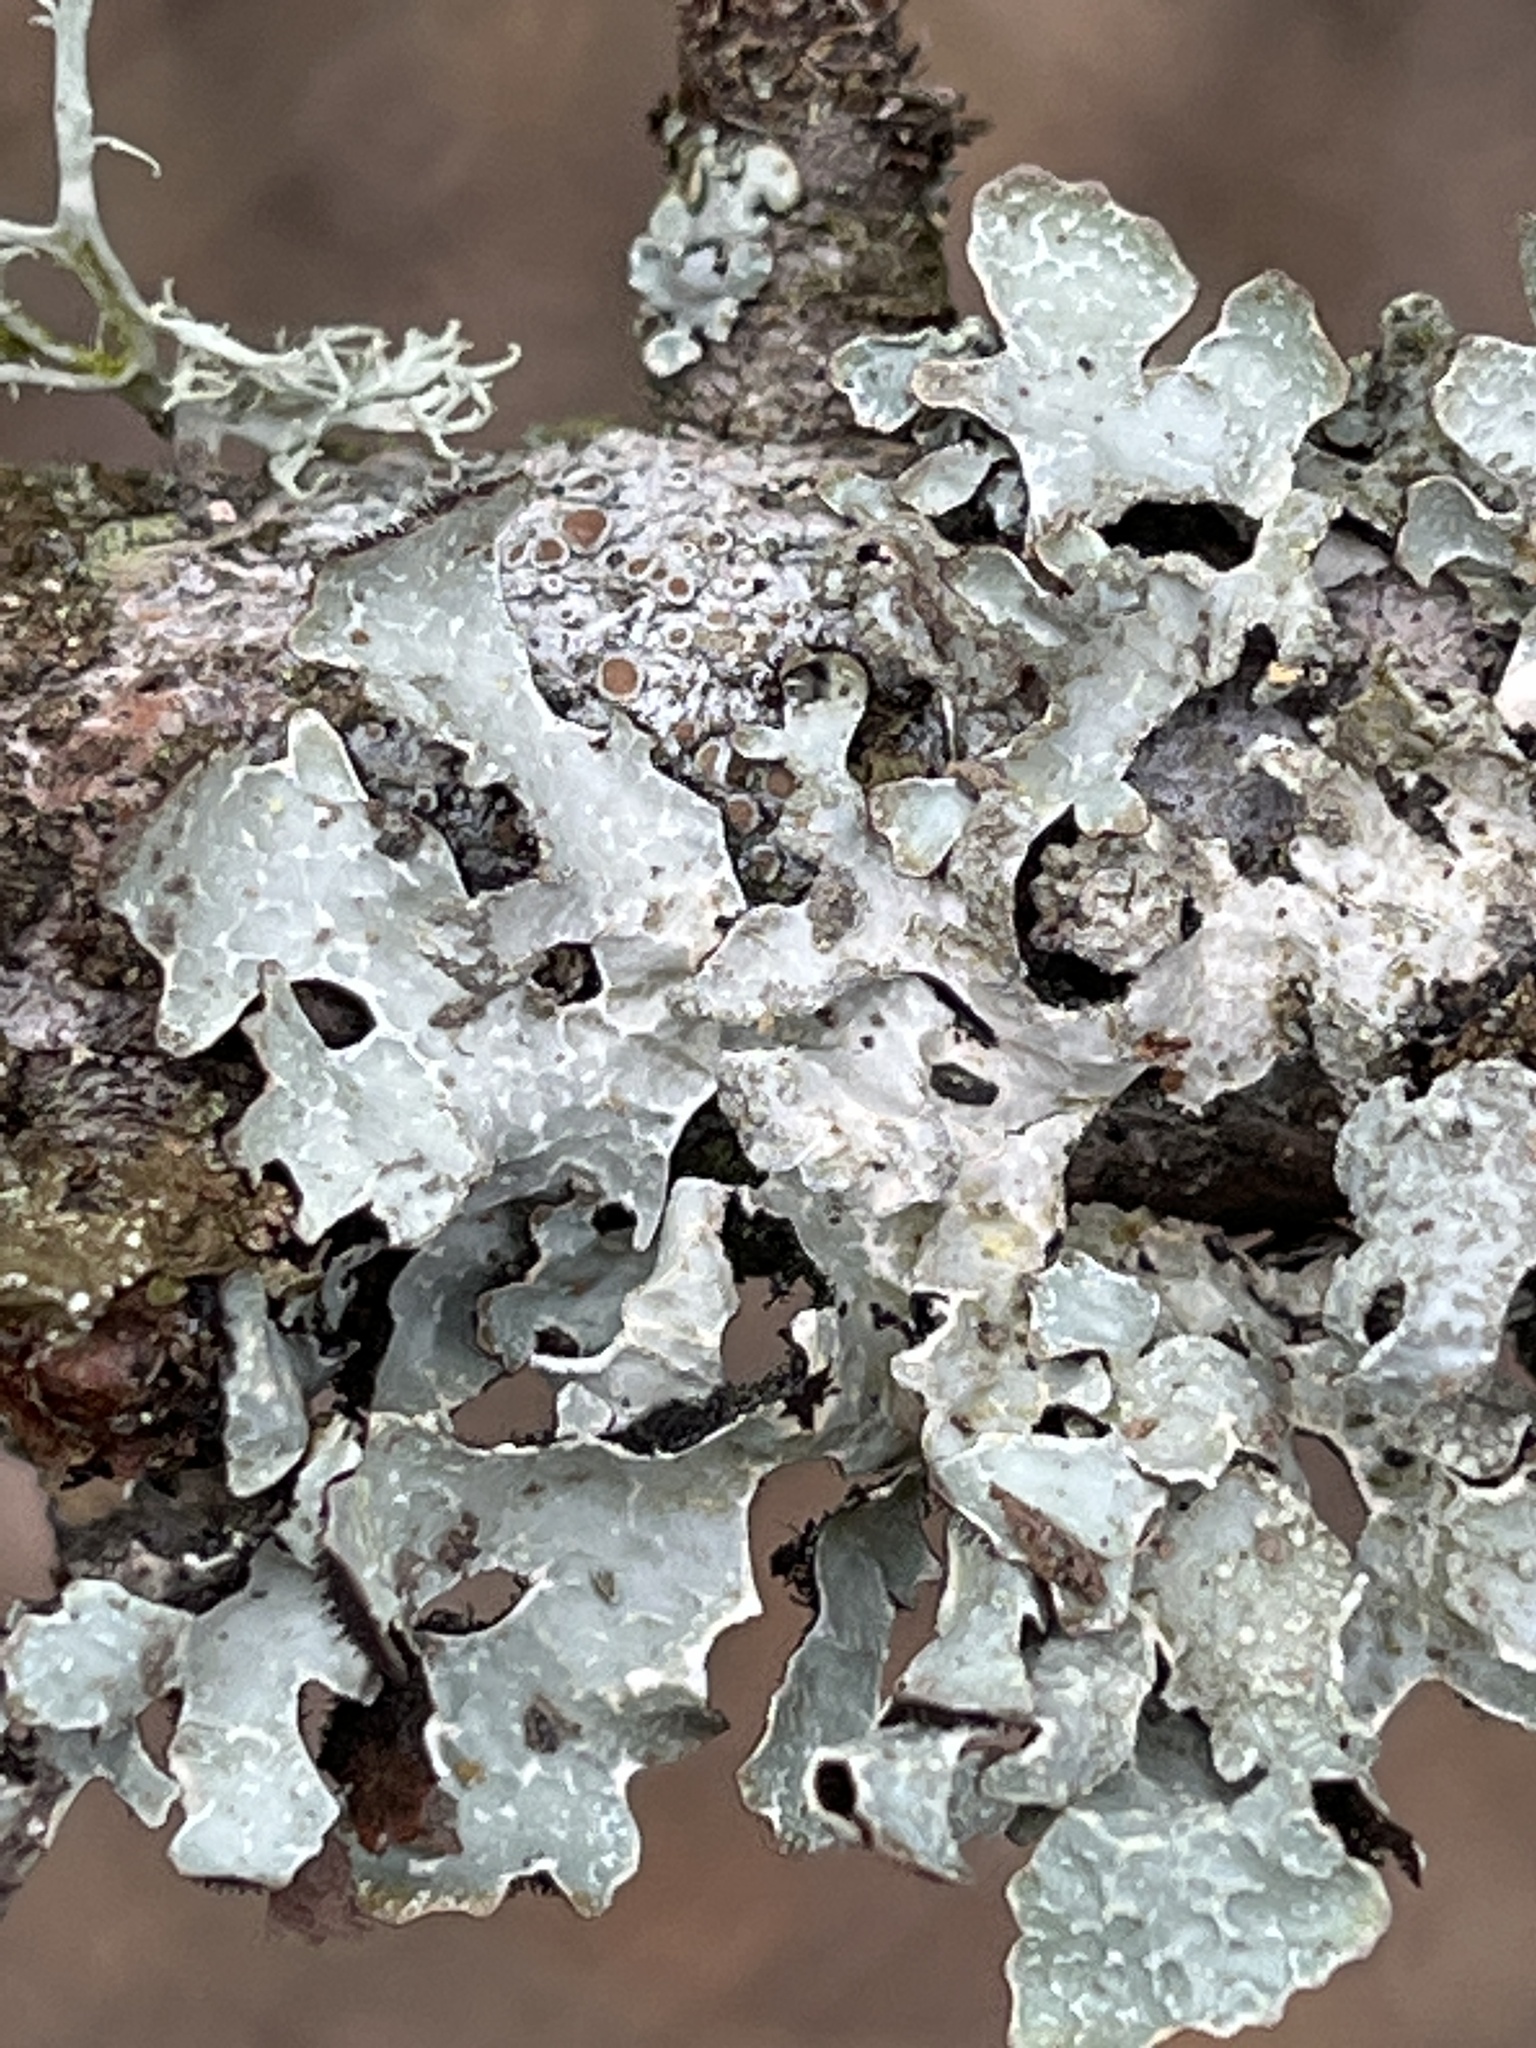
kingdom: Fungi
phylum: Ascomycota
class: Lecanoromycetes
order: Lecanorales
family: Parmeliaceae
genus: Parmelia
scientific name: Parmelia sulcata
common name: Netted shield lichen
